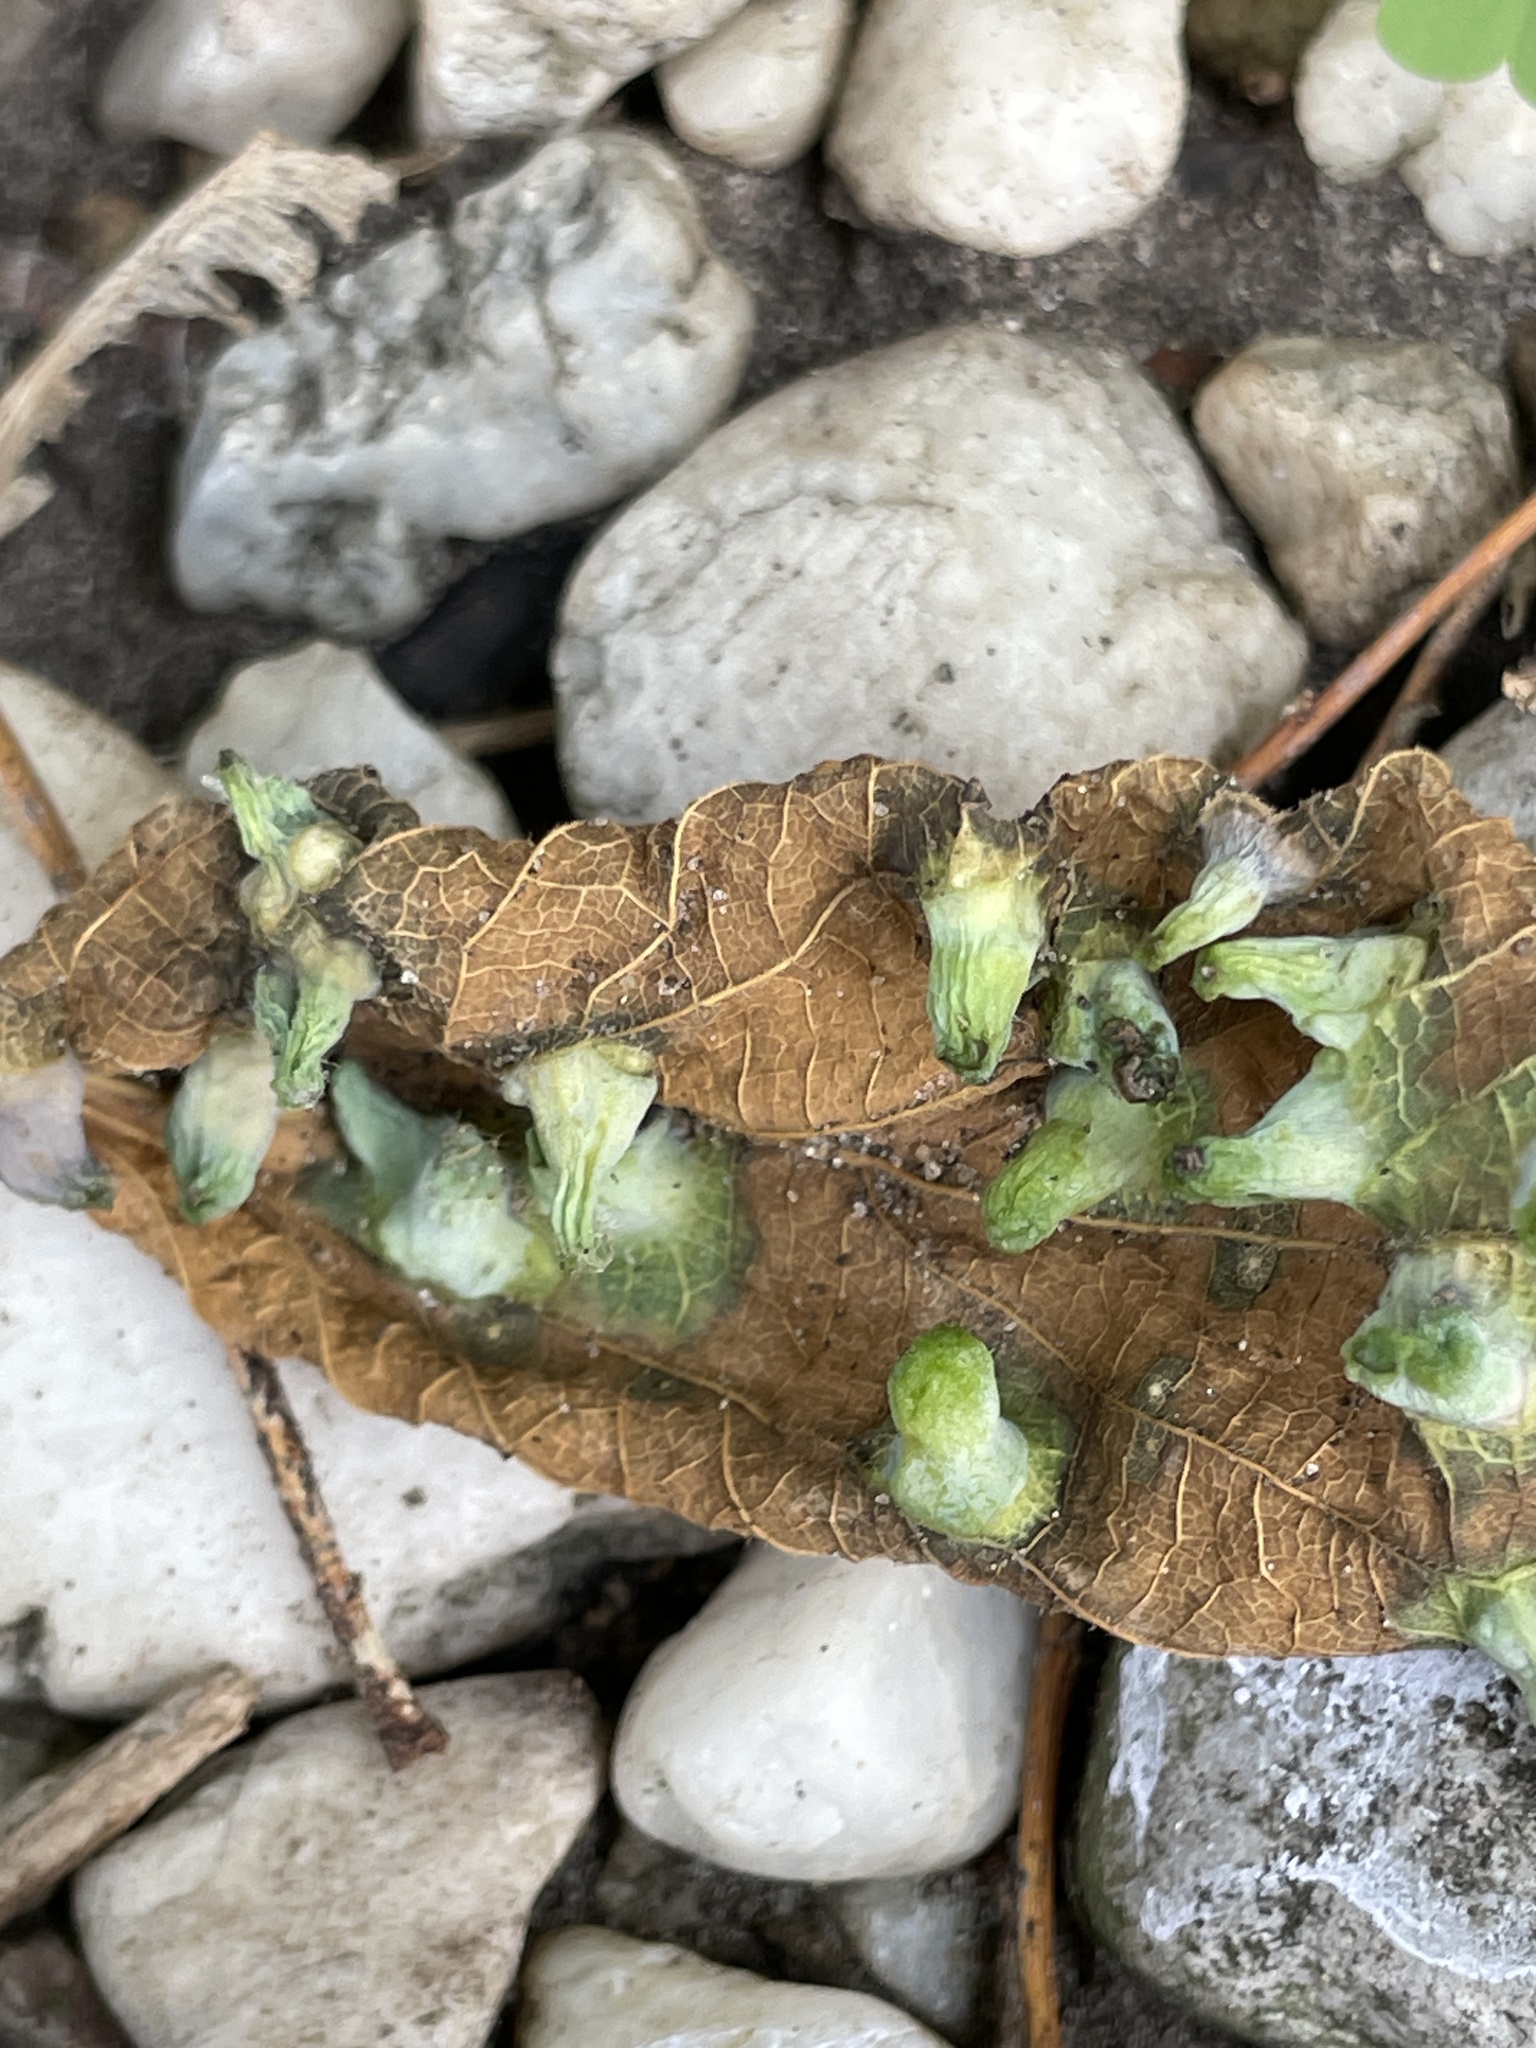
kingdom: Animalia
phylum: Arthropoda
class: Insecta
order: Hemiptera
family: Aphalaridae
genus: Pachypsylla
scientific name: Pachypsylla celtidismamma
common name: Hackberry nipplegall psyllid
